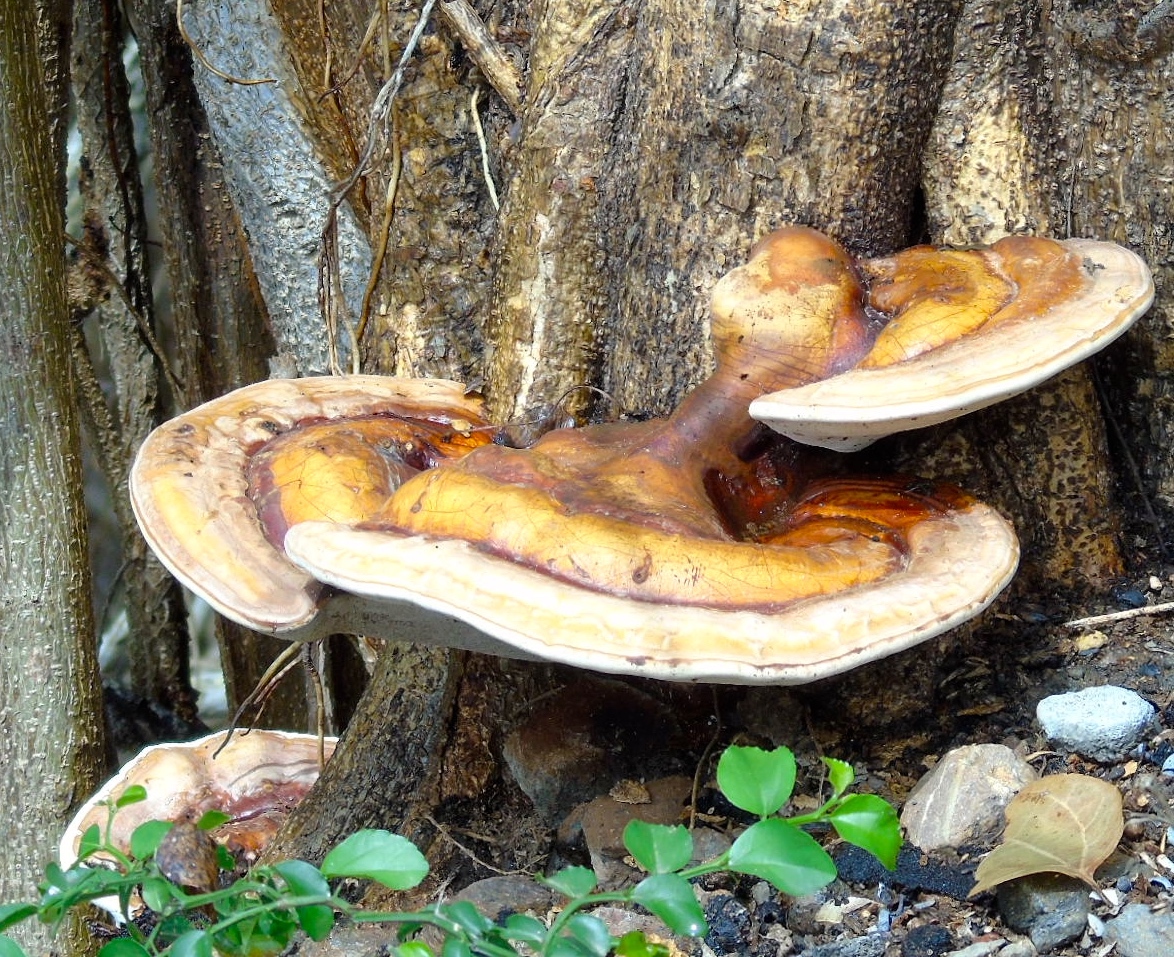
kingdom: Fungi
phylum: Basidiomycota
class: Agaricomycetes
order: Polyporales
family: Polyporaceae
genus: Ganoderma
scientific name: Ganoderma
